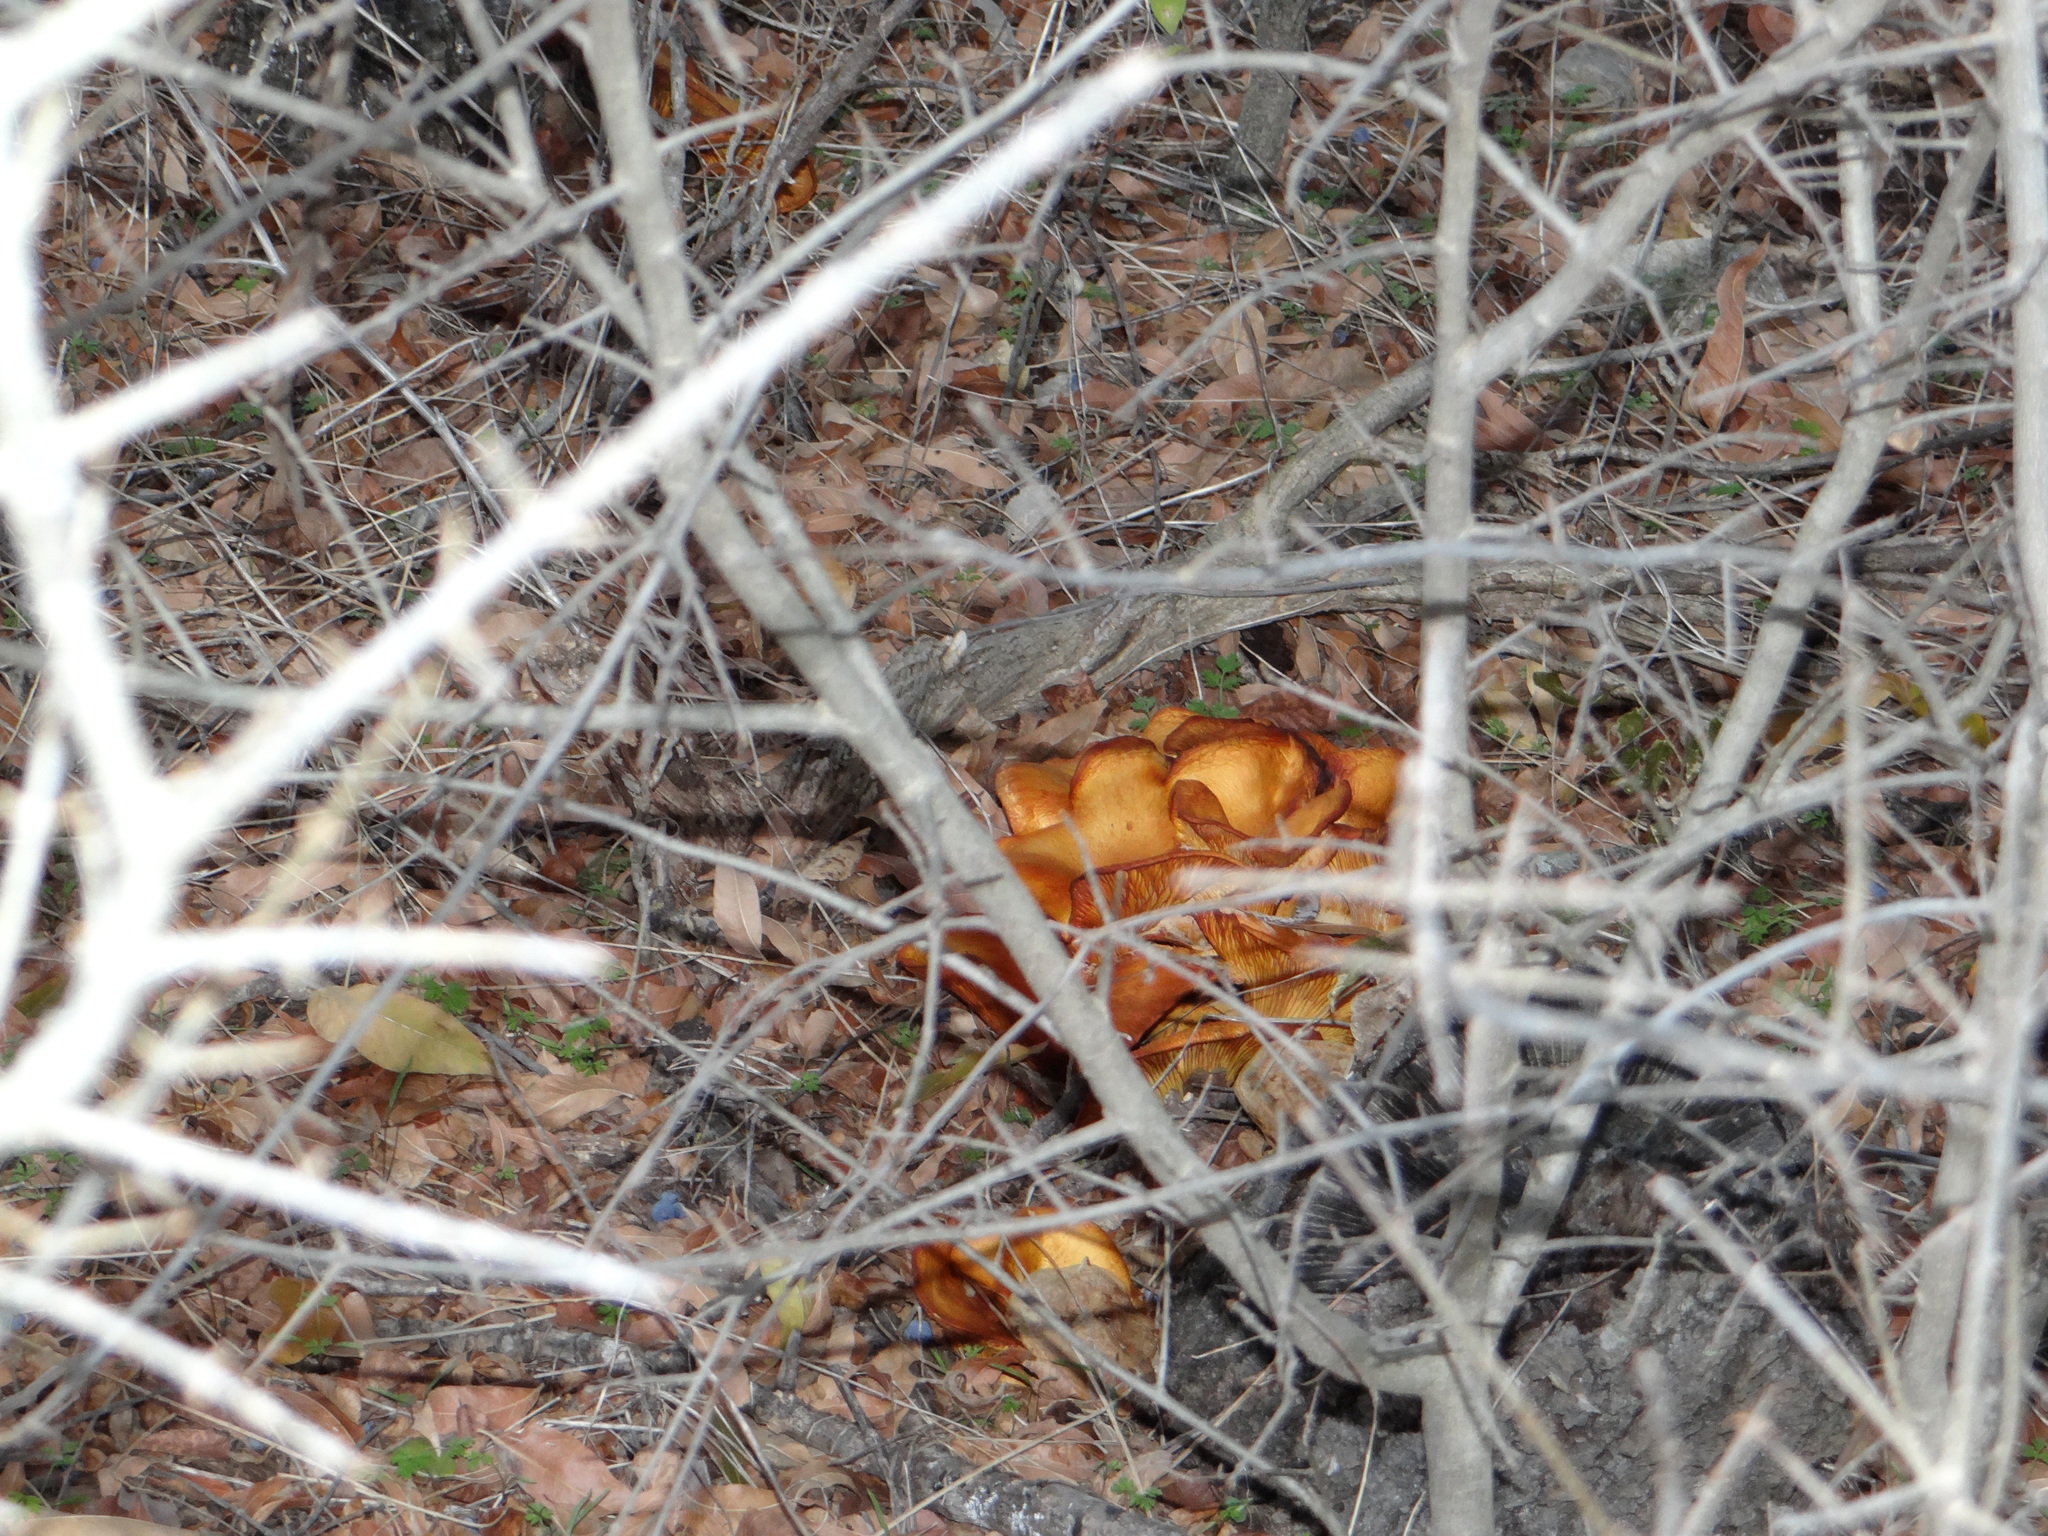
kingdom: Fungi
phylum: Basidiomycota
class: Agaricomycetes
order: Agaricales
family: Omphalotaceae
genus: Omphalotus
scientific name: Omphalotus subilludens
